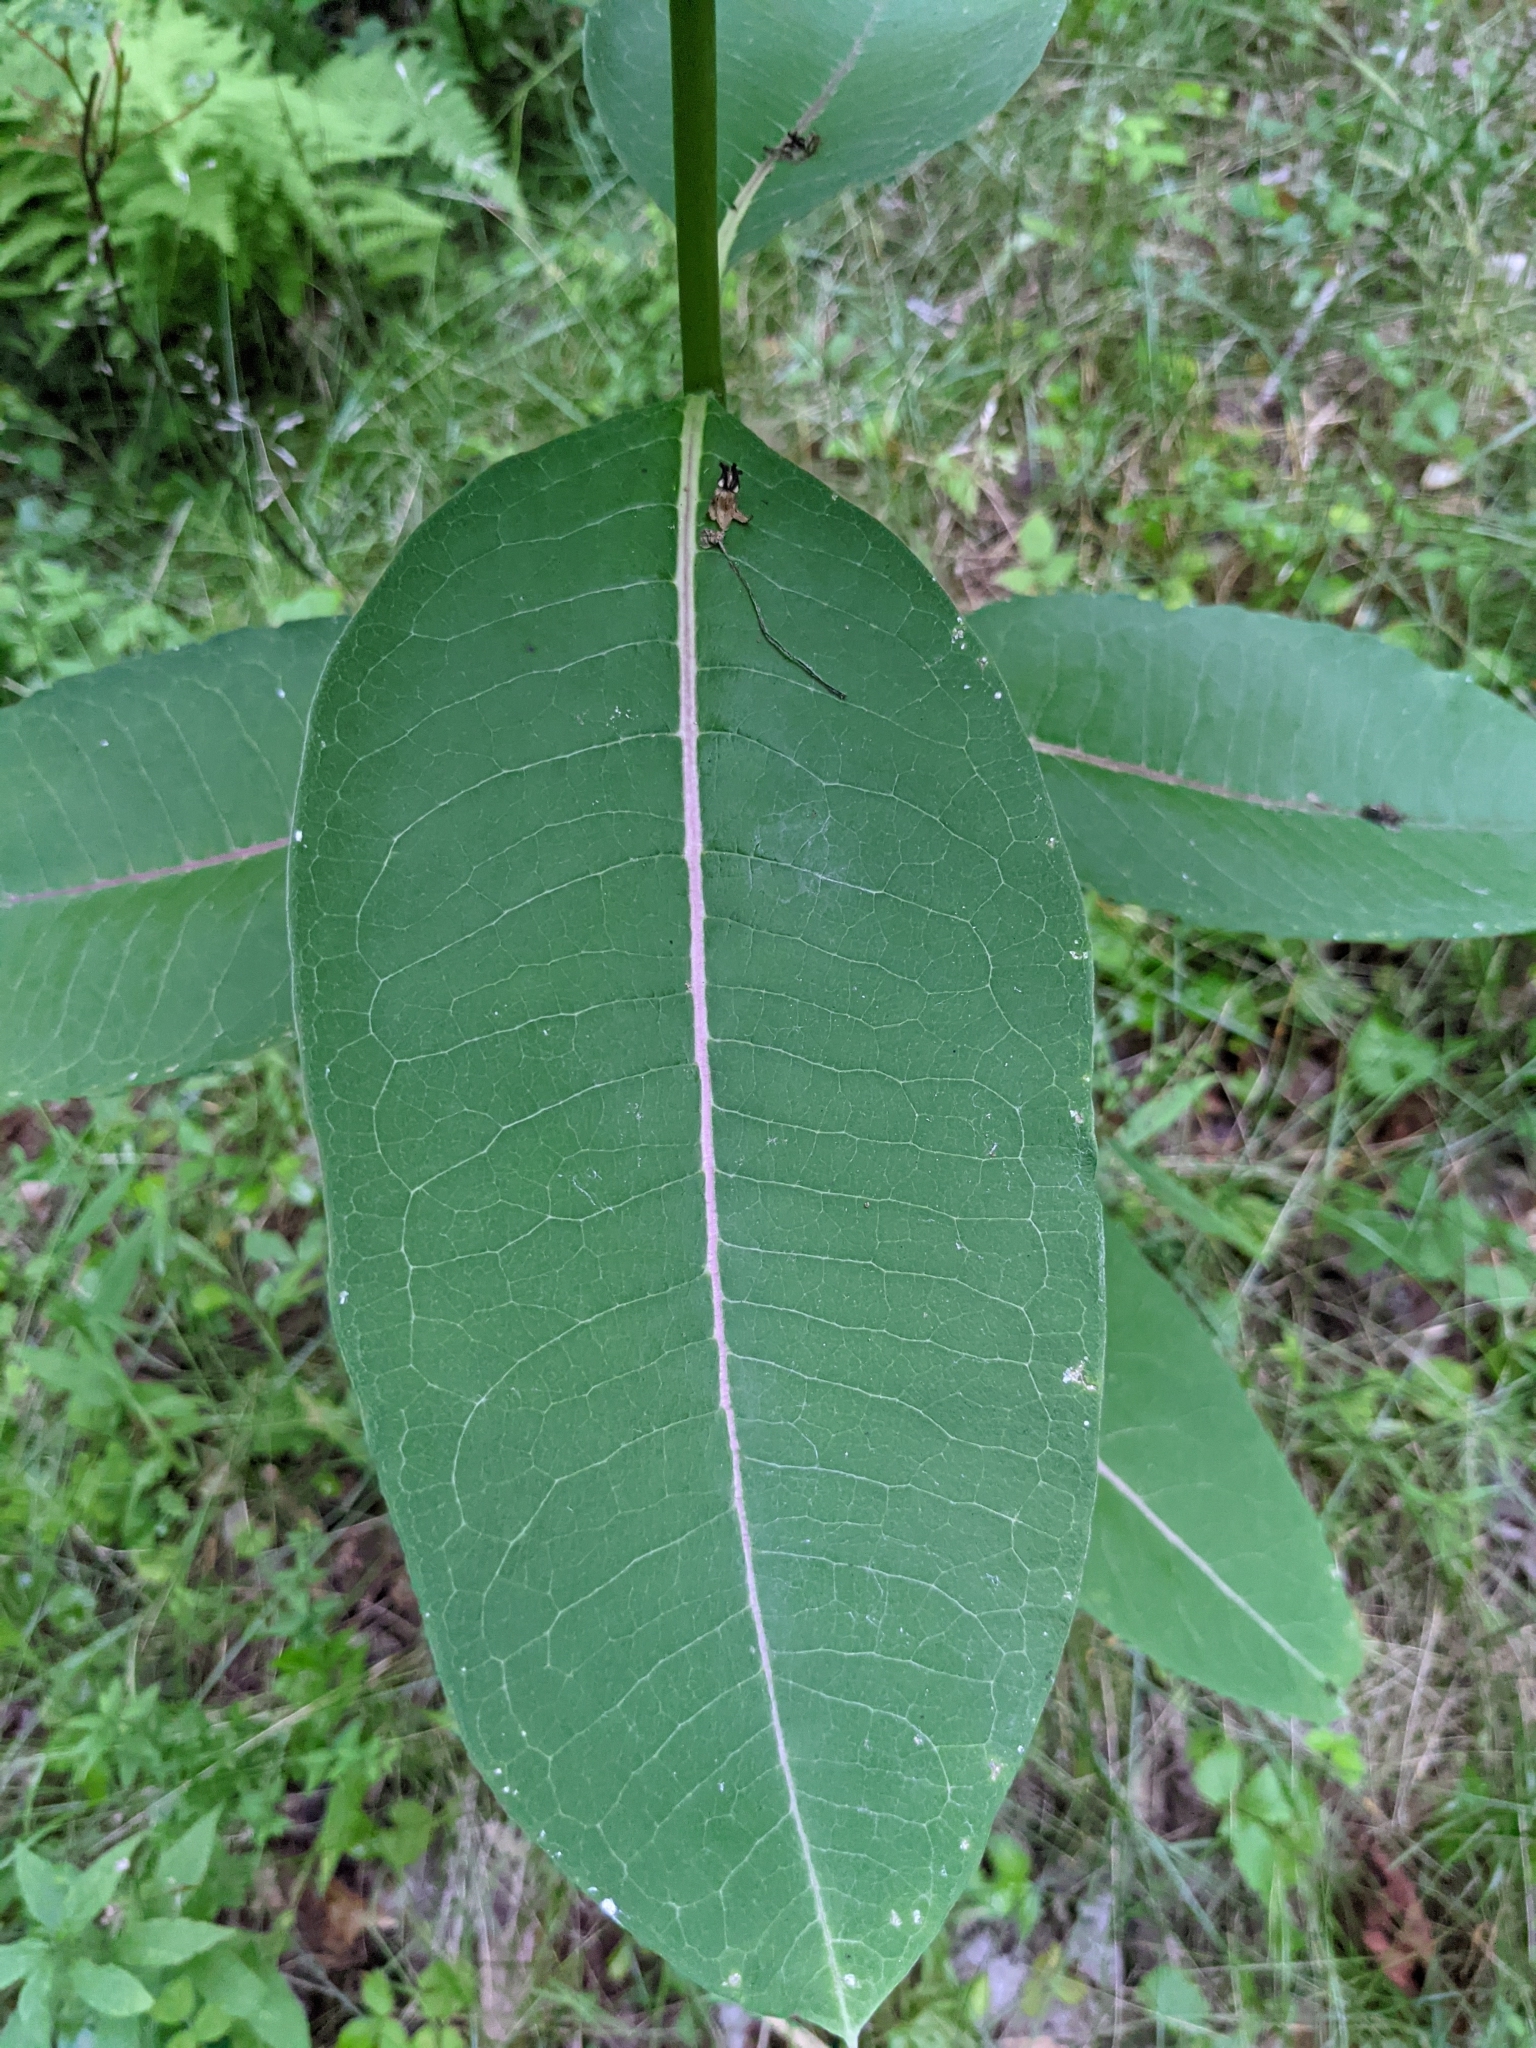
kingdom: Plantae
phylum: Tracheophyta
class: Magnoliopsida
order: Gentianales
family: Apocynaceae
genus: Asclepias
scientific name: Asclepias syriaca
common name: Common milkweed
